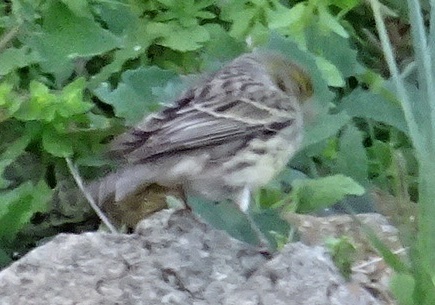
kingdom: Animalia
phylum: Chordata
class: Aves
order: Passeriformes
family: Fringillidae
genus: Serinus
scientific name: Serinus canaria
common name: Atlantic canary
